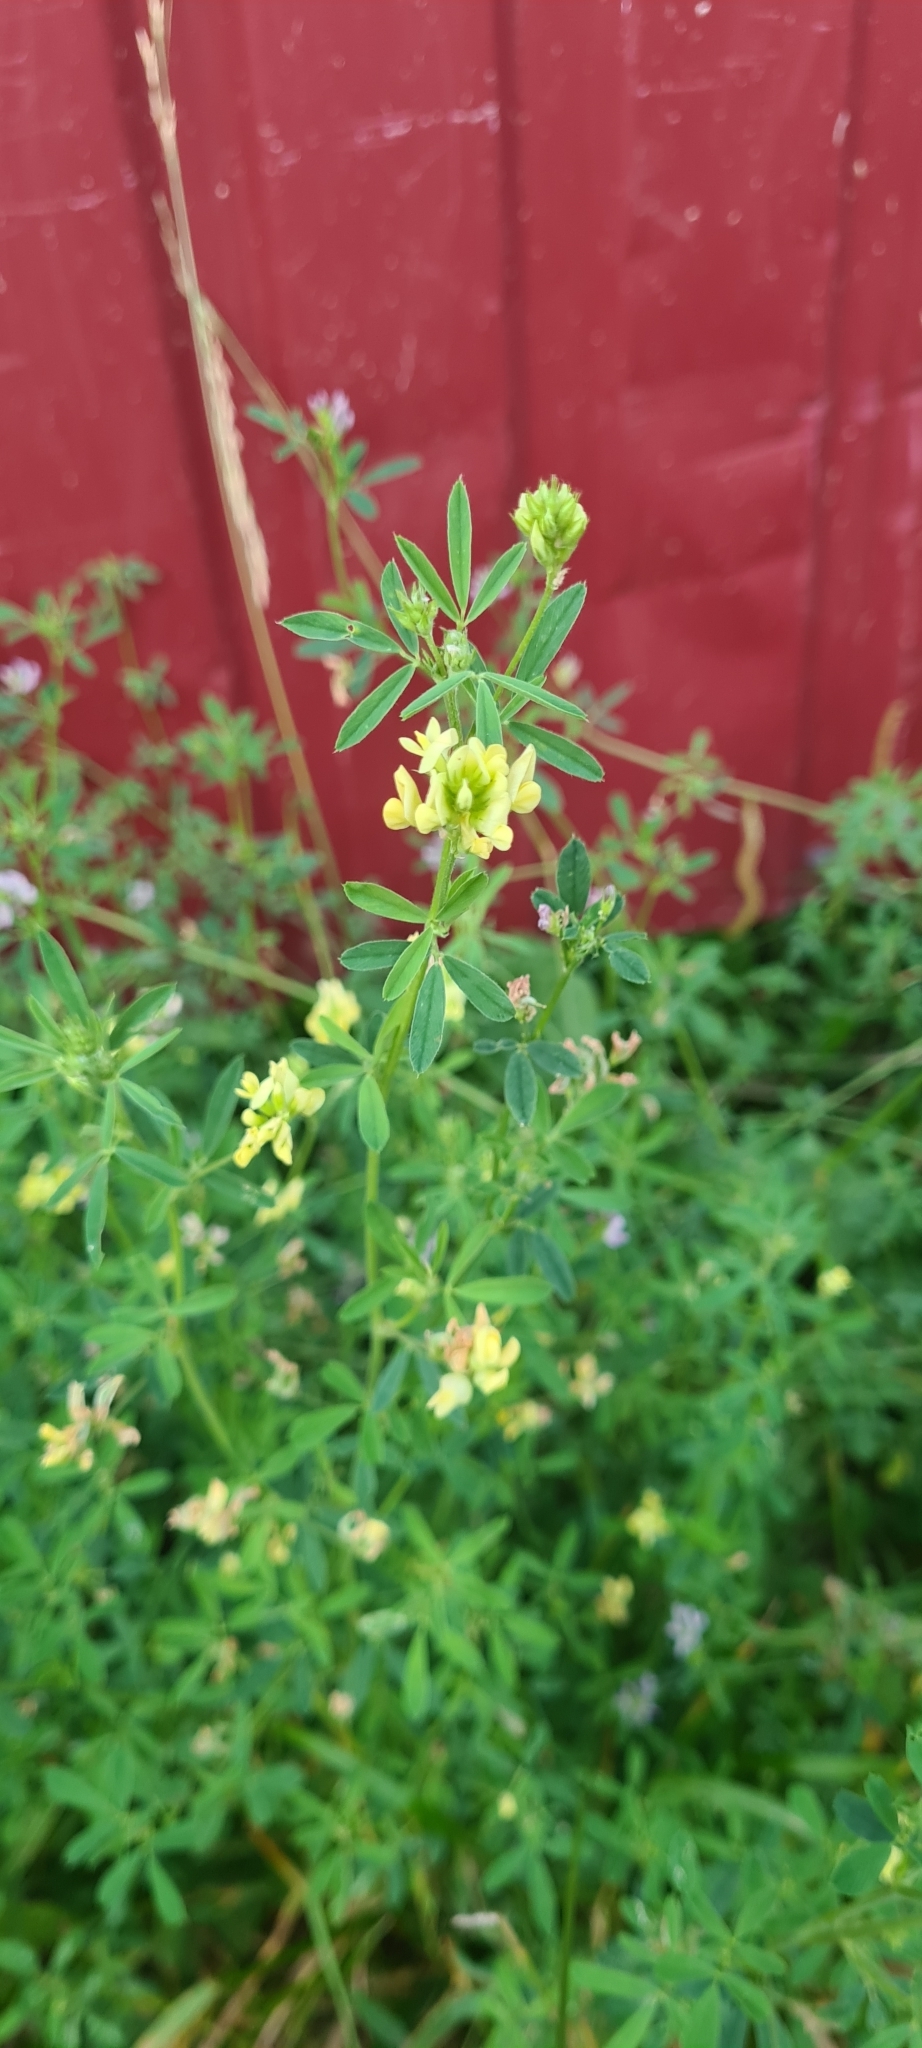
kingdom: Plantae
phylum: Tracheophyta
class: Magnoliopsida
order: Fabales
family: Fabaceae
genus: Medicago
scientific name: Medicago varia
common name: Sand lucerne
